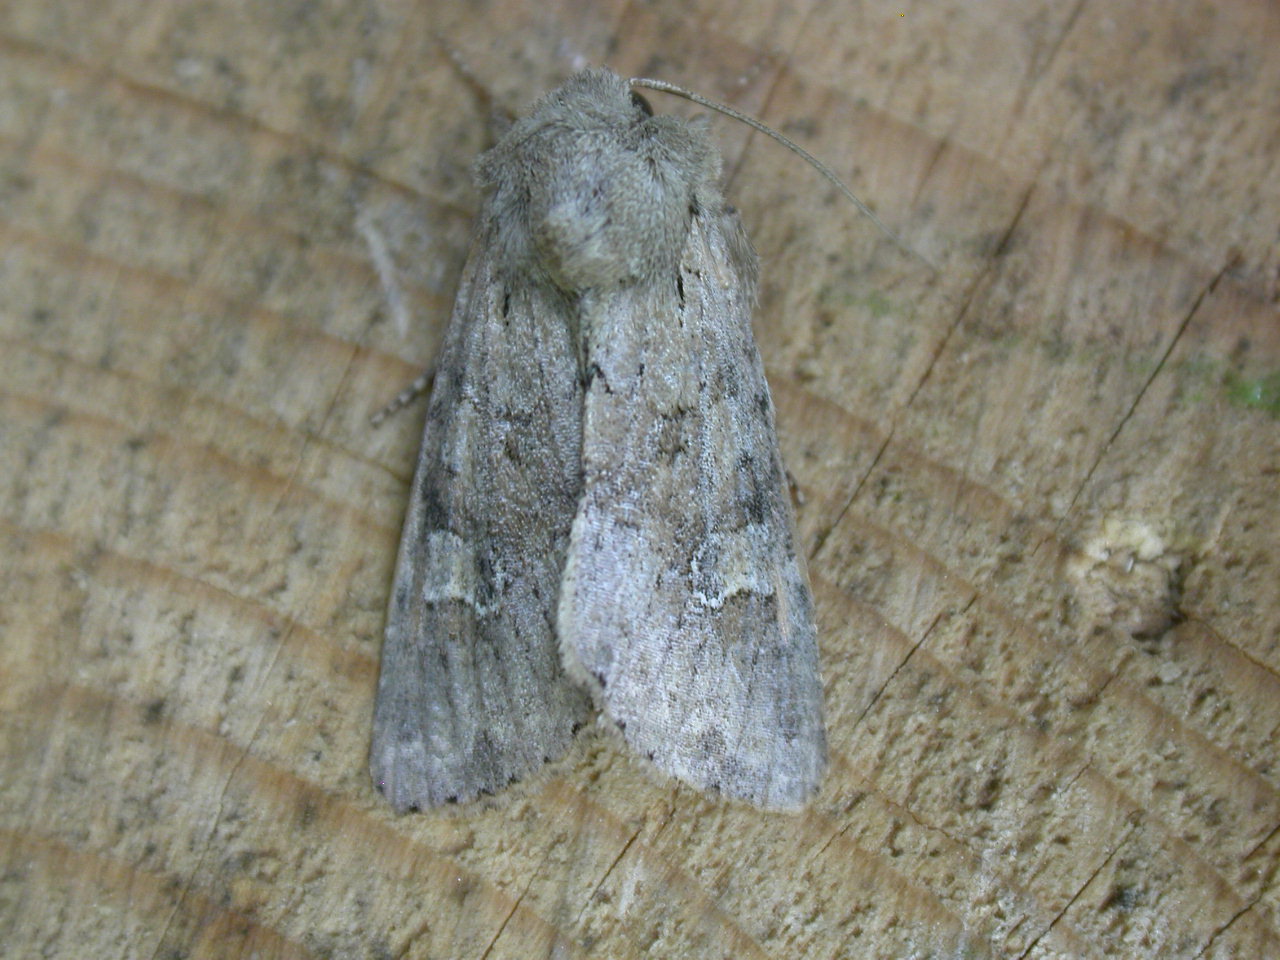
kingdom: Animalia
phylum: Arthropoda
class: Insecta
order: Lepidoptera
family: Noctuidae
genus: Apamea
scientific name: Apamea sordens
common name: Rustic shoulder-knot
